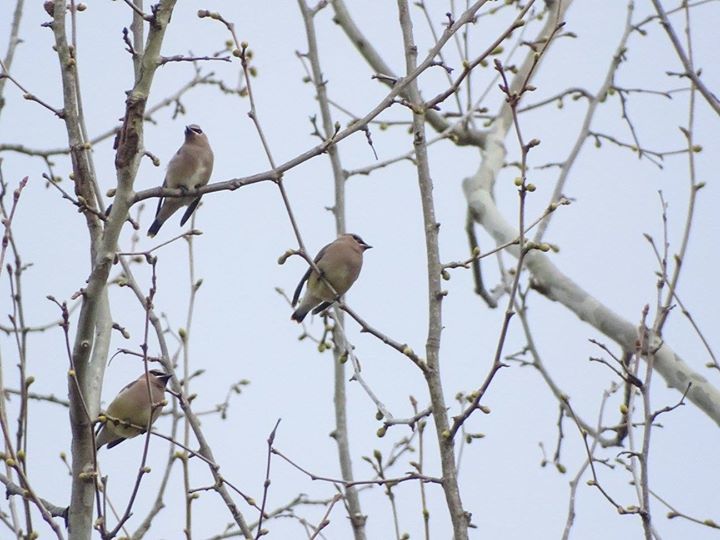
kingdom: Animalia
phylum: Chordata
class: Aves
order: Passeriformes
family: Bombycillidae
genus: Bombycilla
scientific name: Bombycilla cedrorum
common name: Cedar waxwing
